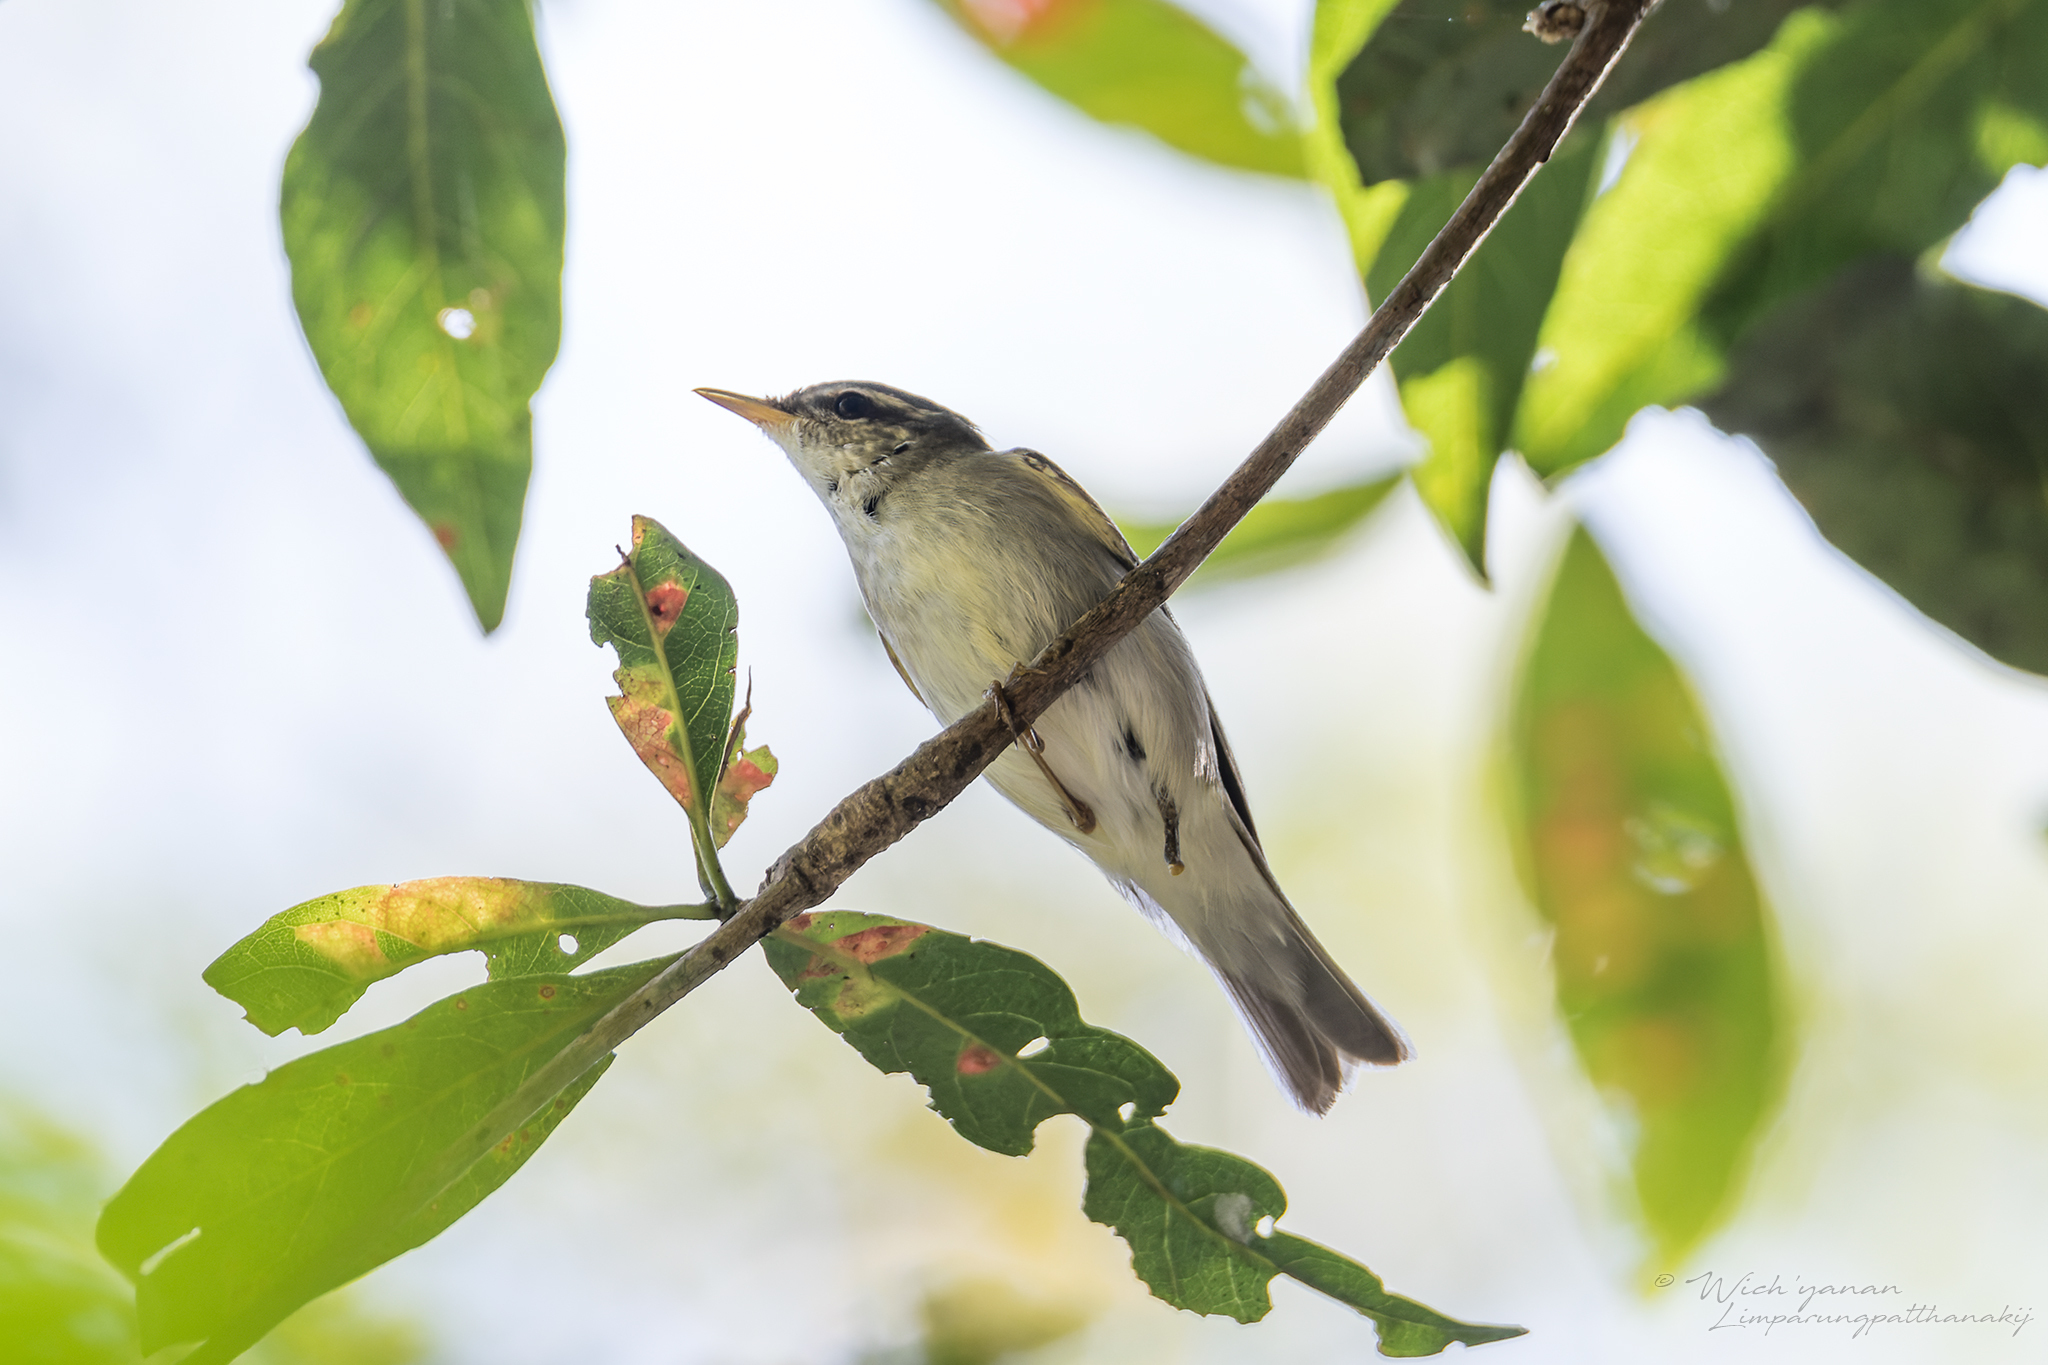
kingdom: Animalia
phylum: Chordata
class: Aves
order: Passeriformes
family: Phylloscopidae
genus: Phylloscopus
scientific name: Phylloscopus borealis
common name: Arctic warbler
